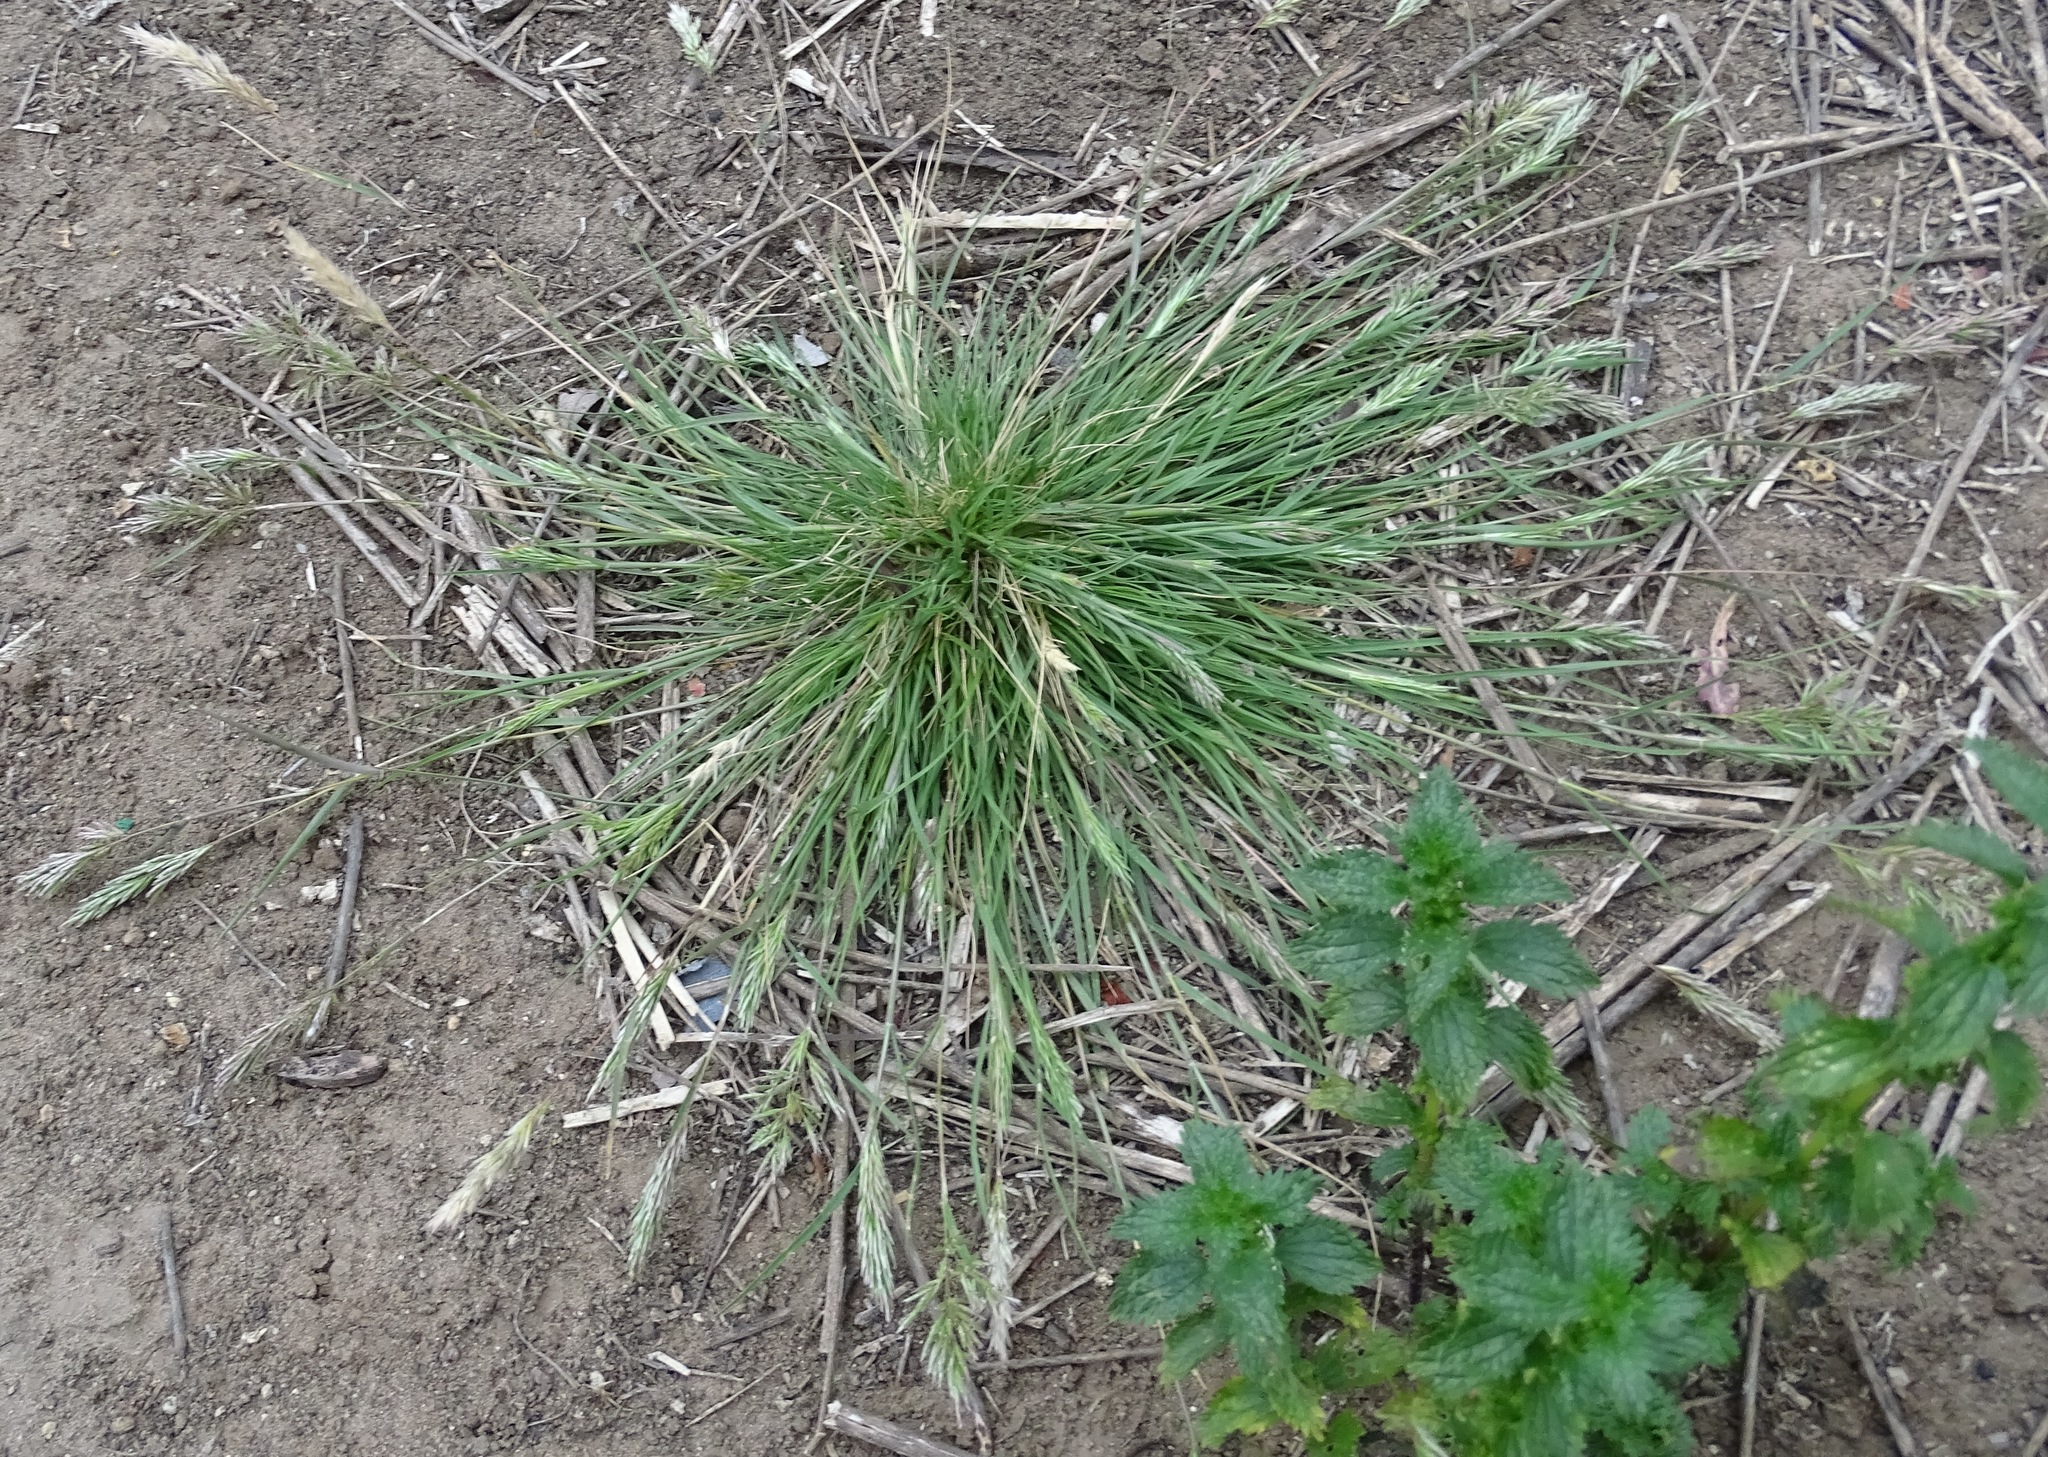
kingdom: Plantae
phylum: Tracheophyta
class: Liliopsida
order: Poales
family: Poaceae
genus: Schismus
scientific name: Schismus barbatus
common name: Kelch-grass
